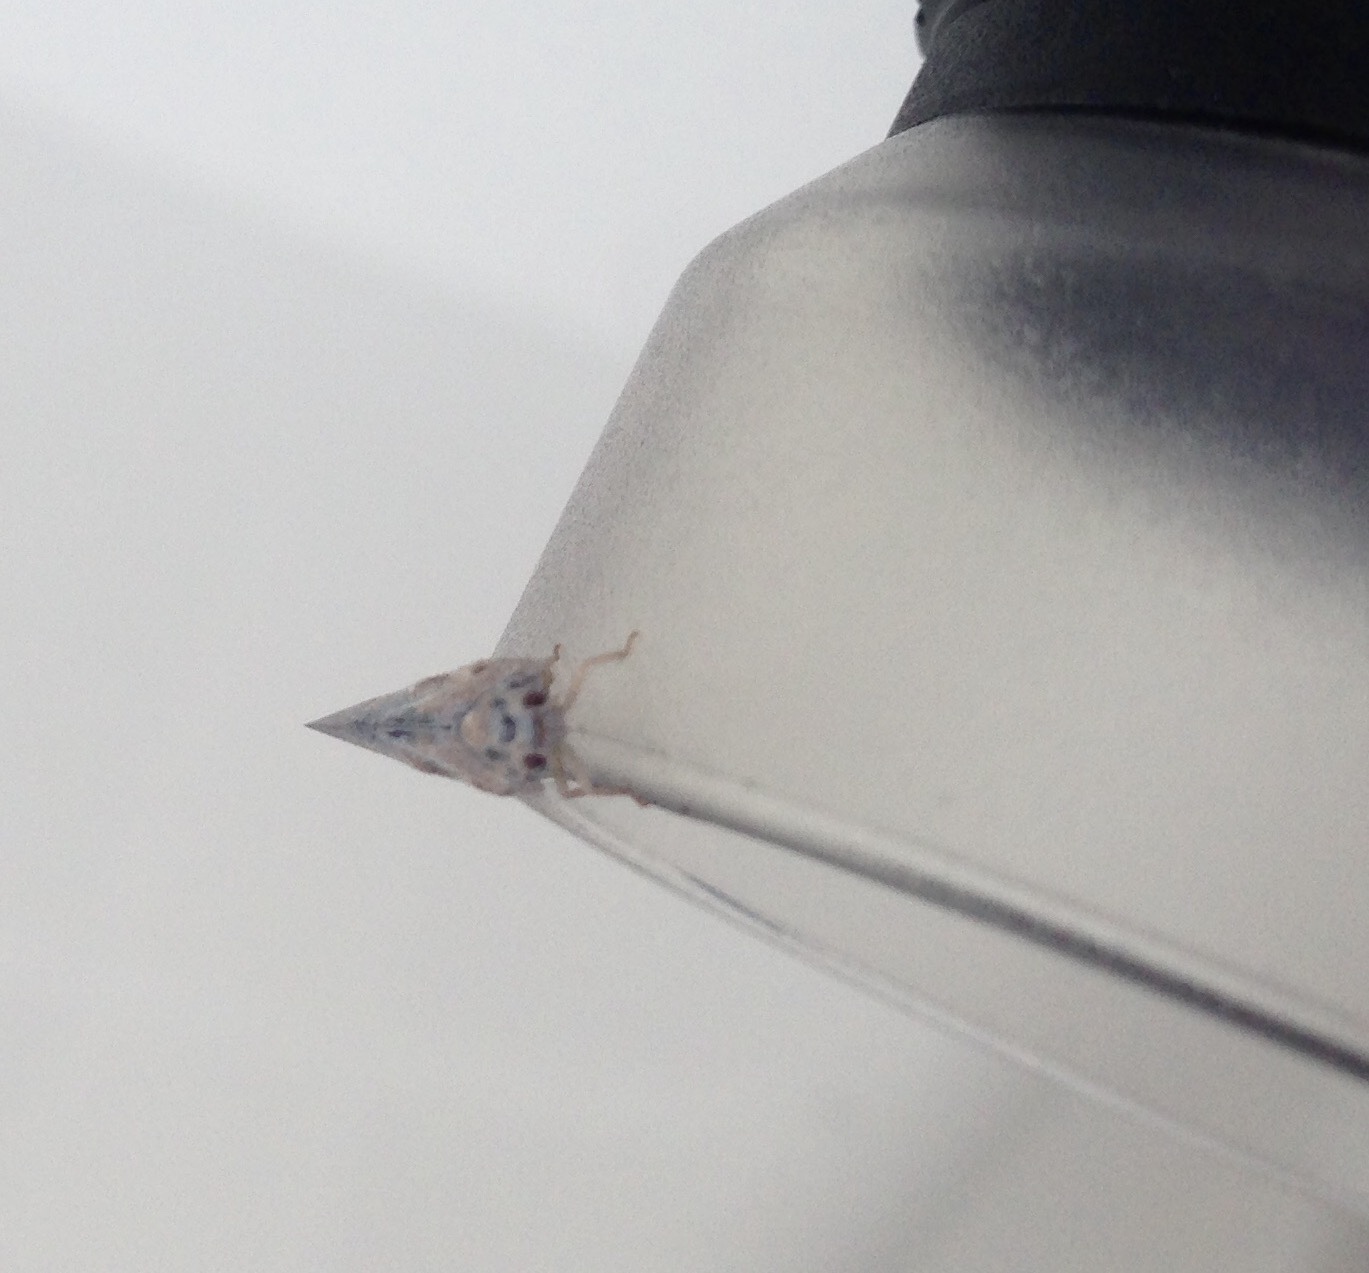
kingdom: Animalia
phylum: Arthropoda
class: Insecta
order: Hemiptera
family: Flatidae
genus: Metcalfa
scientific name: Metcalfa pruinosa
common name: Citrus flatid planthopper
